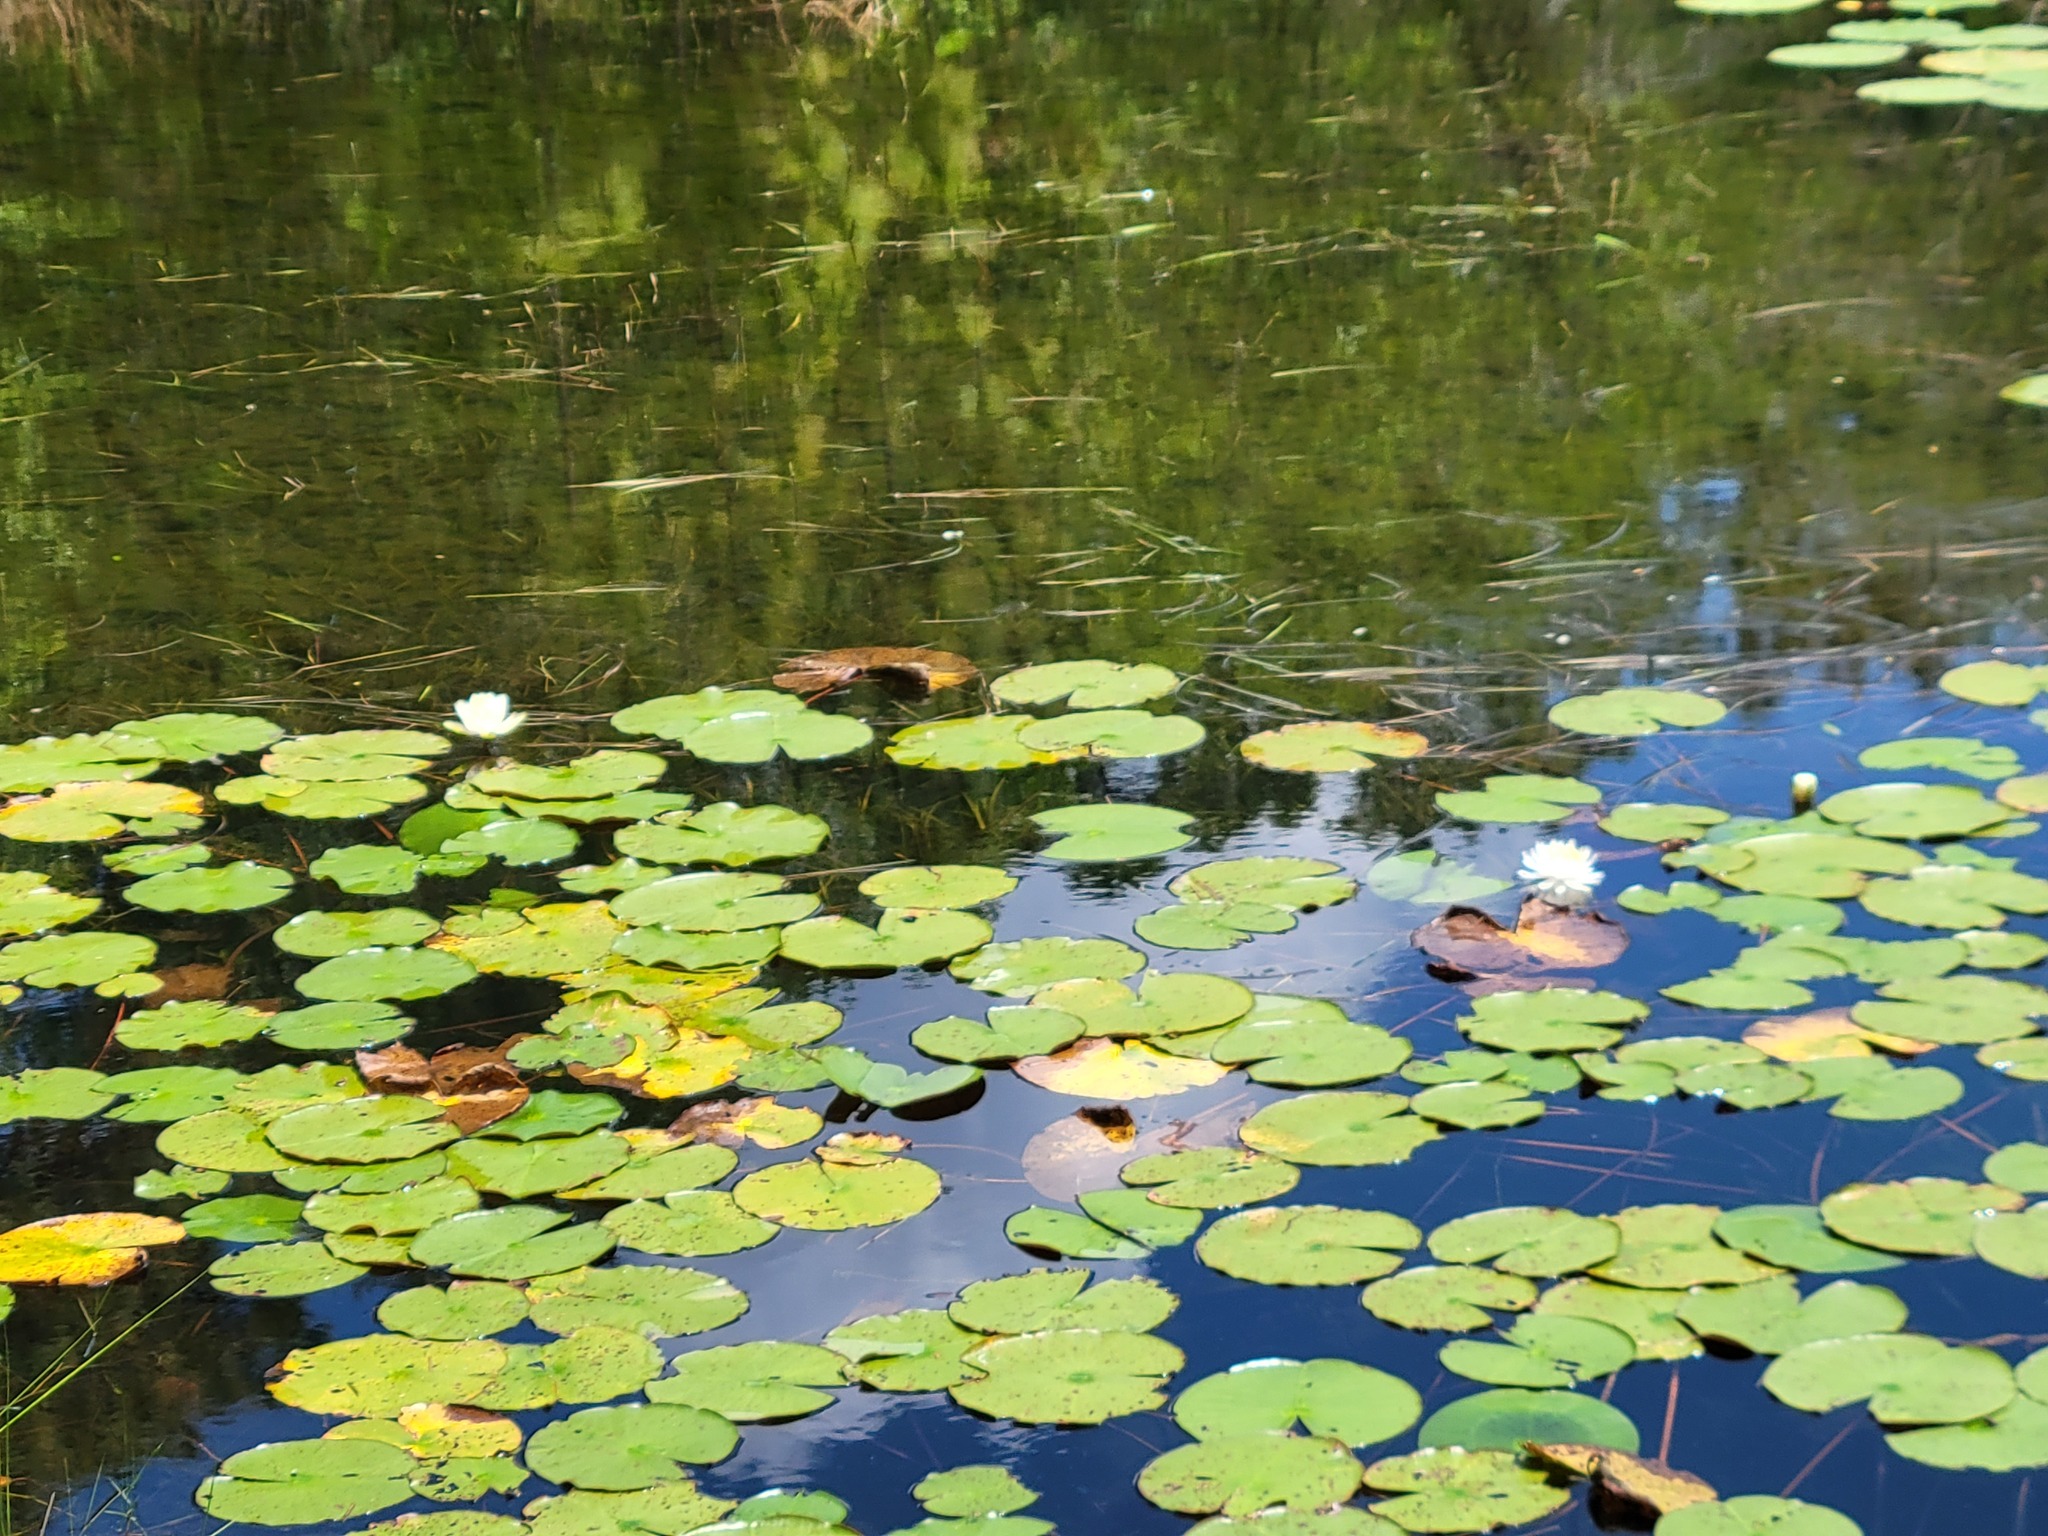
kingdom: Plantae
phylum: Tracheophyta
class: Magnoliopsida
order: Nymphaeales
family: Nymphaeaceae
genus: Nymphaea
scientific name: Nymphaea odorata
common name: Fragrant water-lily
